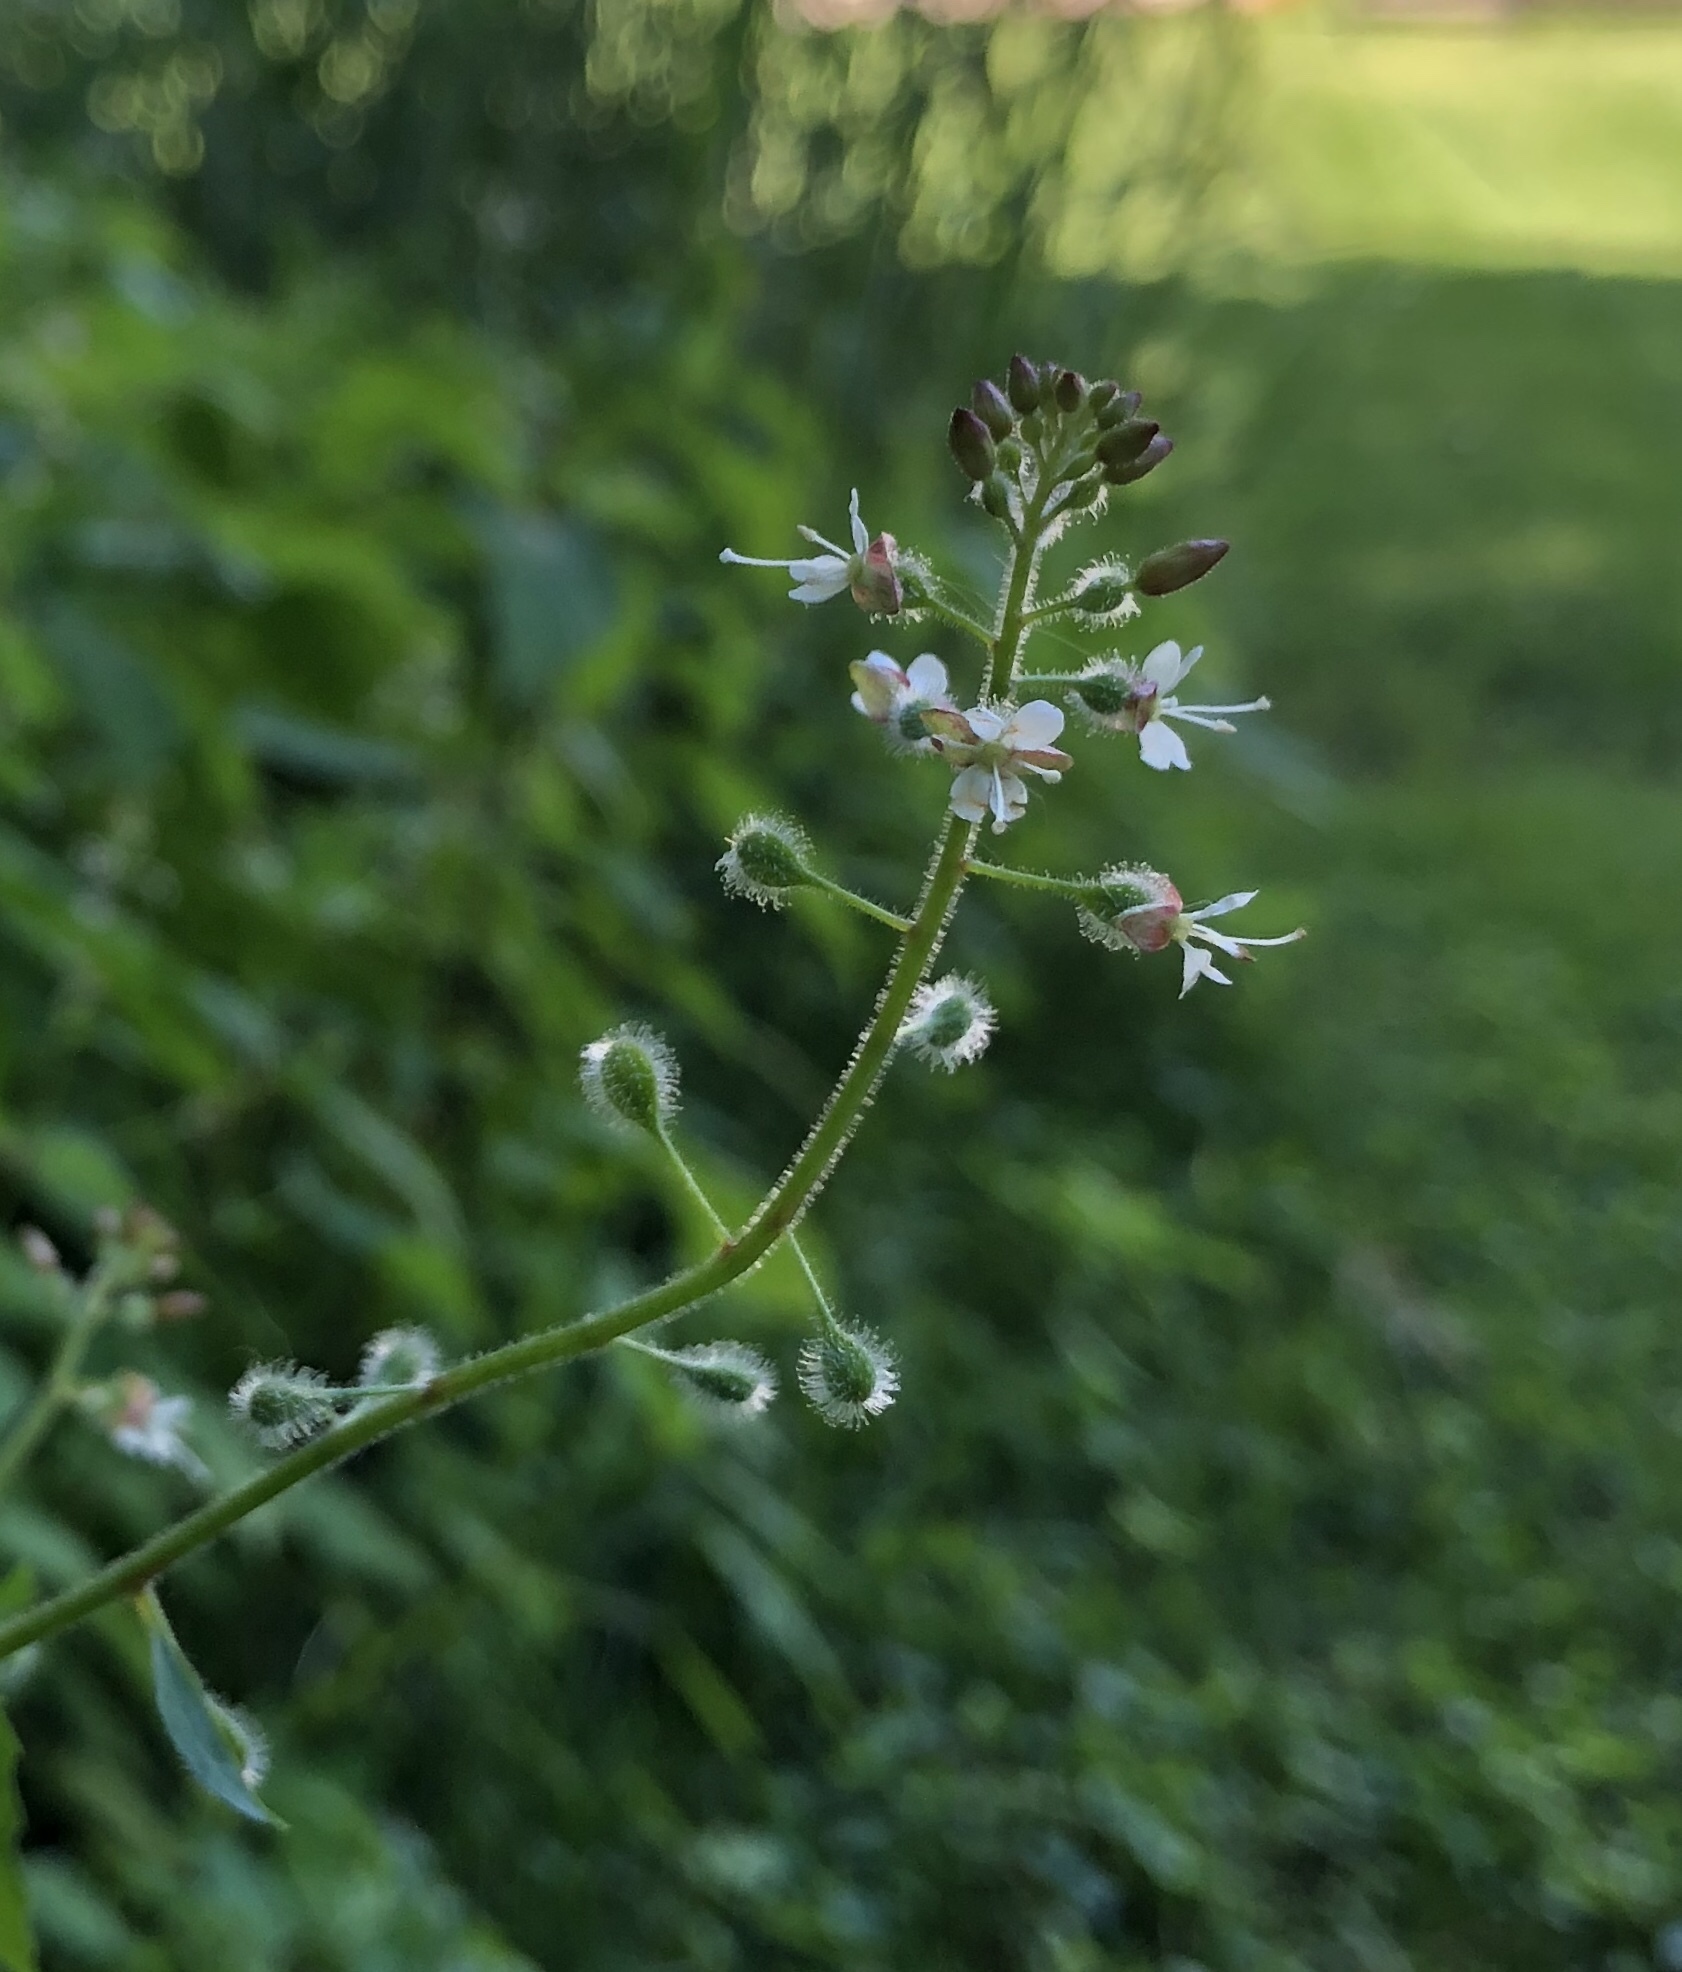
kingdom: Plantae
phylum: Tracheophyta
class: Magnoliopsida
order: Myrtales
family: Onagraceae
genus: Circaea
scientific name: Circaea canadensis
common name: Broad-leaved enchanter's nightshade
